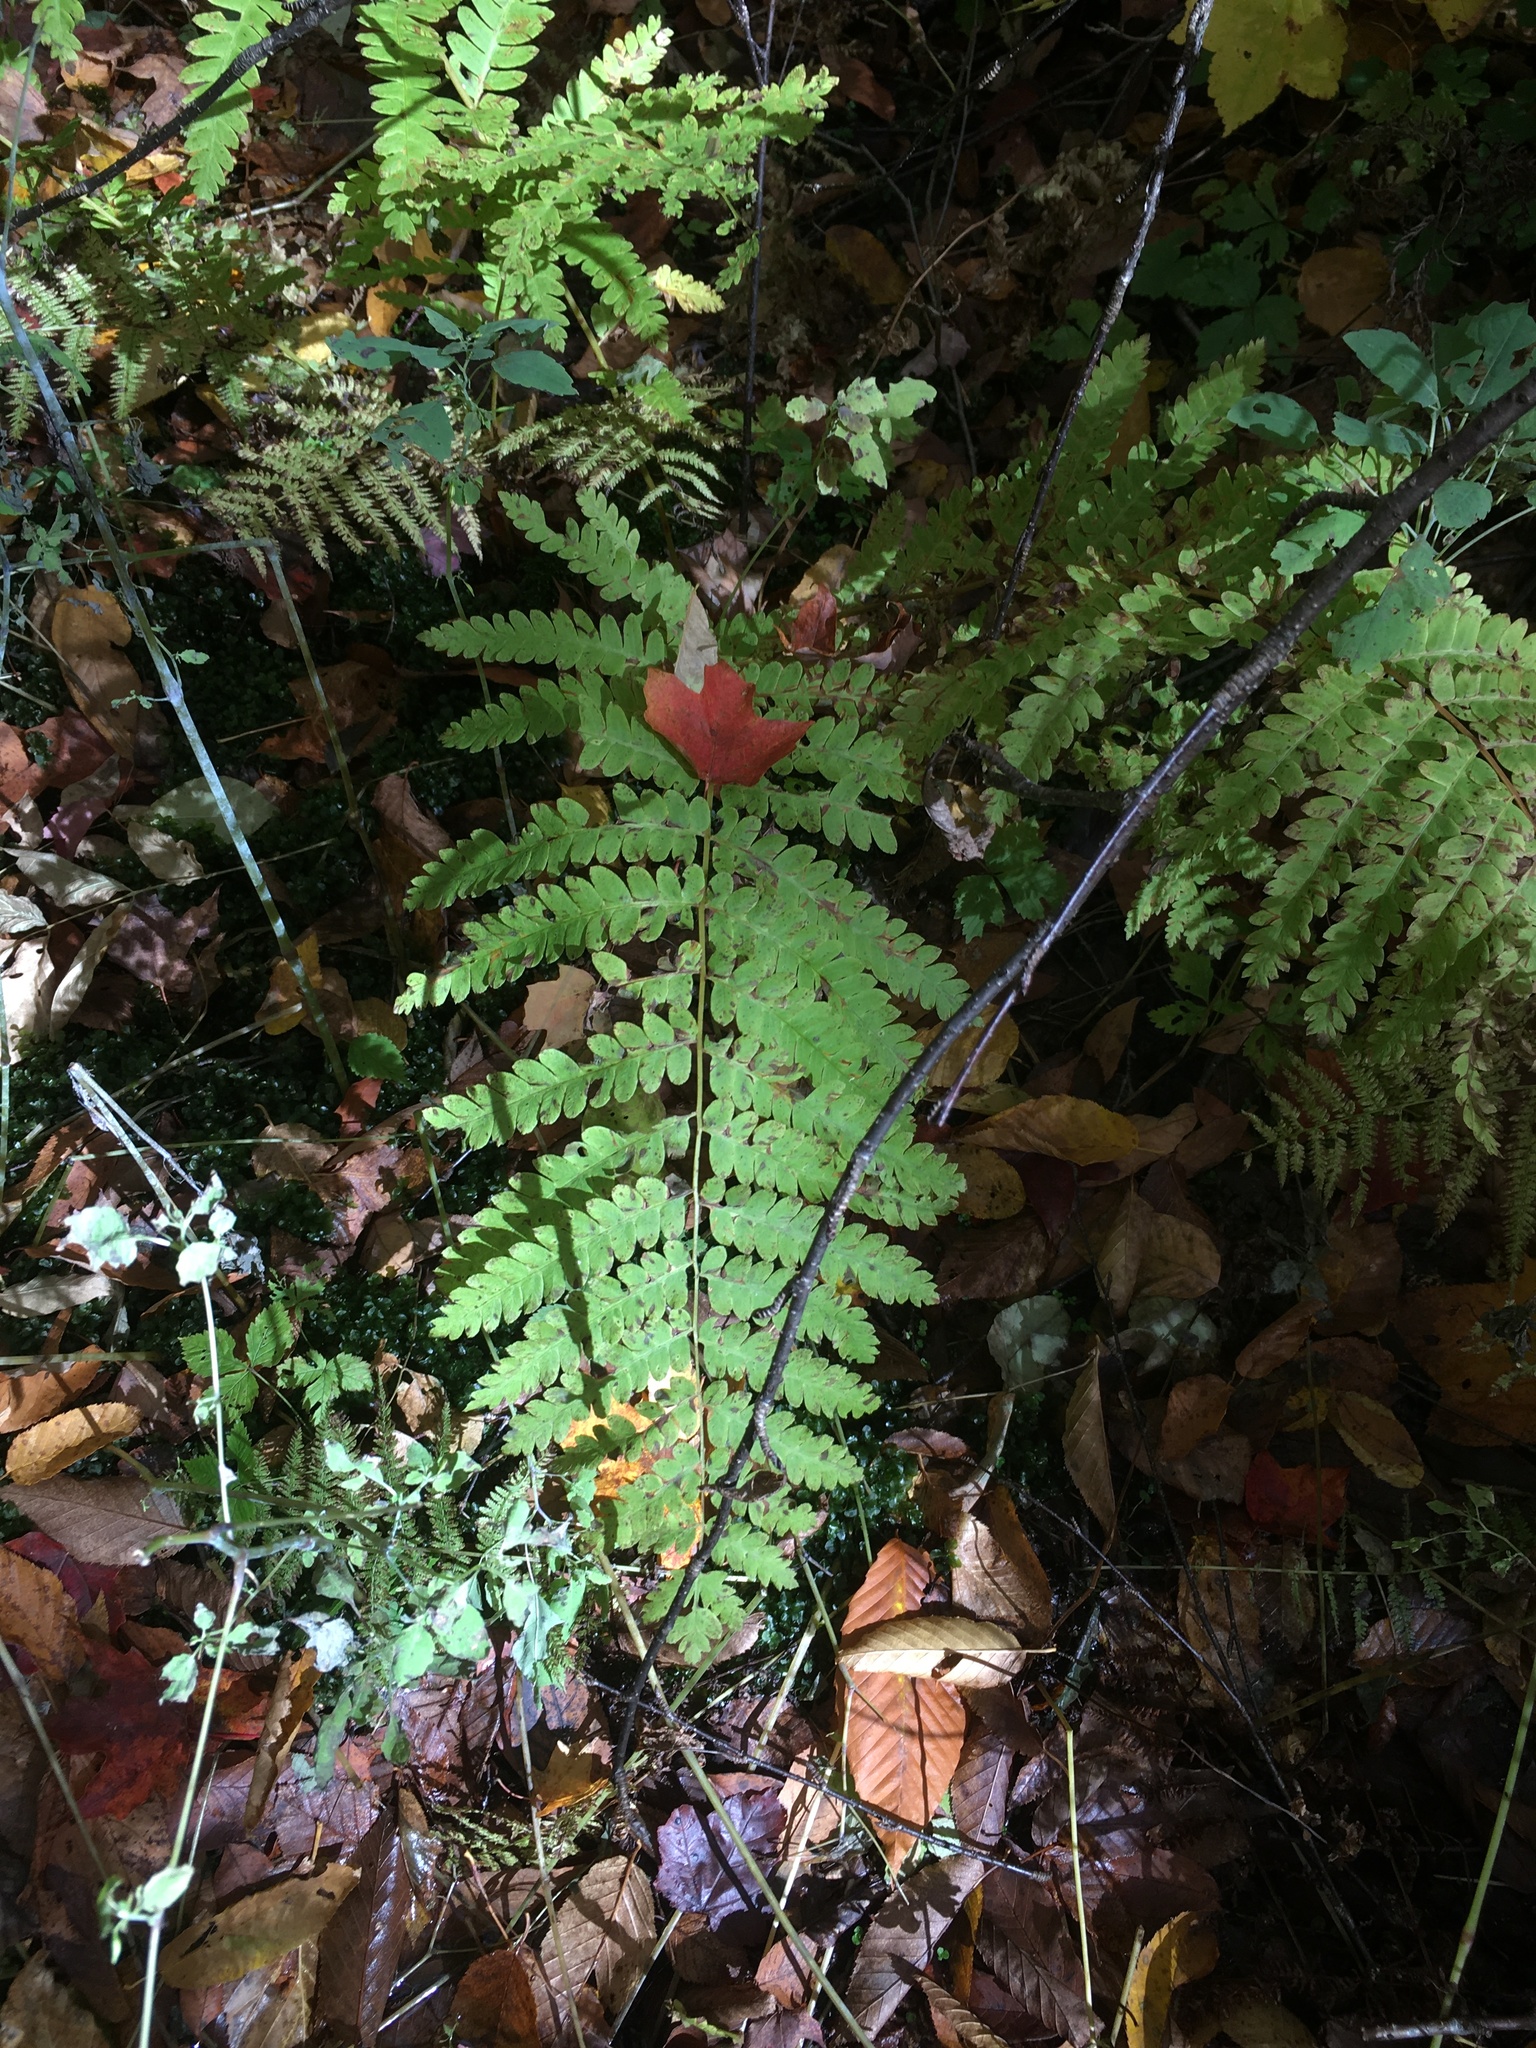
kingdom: Plantae
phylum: Tracheophyta
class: Polypodiopsida
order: Osmundales
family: Osmundaceae
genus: Claytosmunda
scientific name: Claytosmunda claytoniana
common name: Clayton's fern
